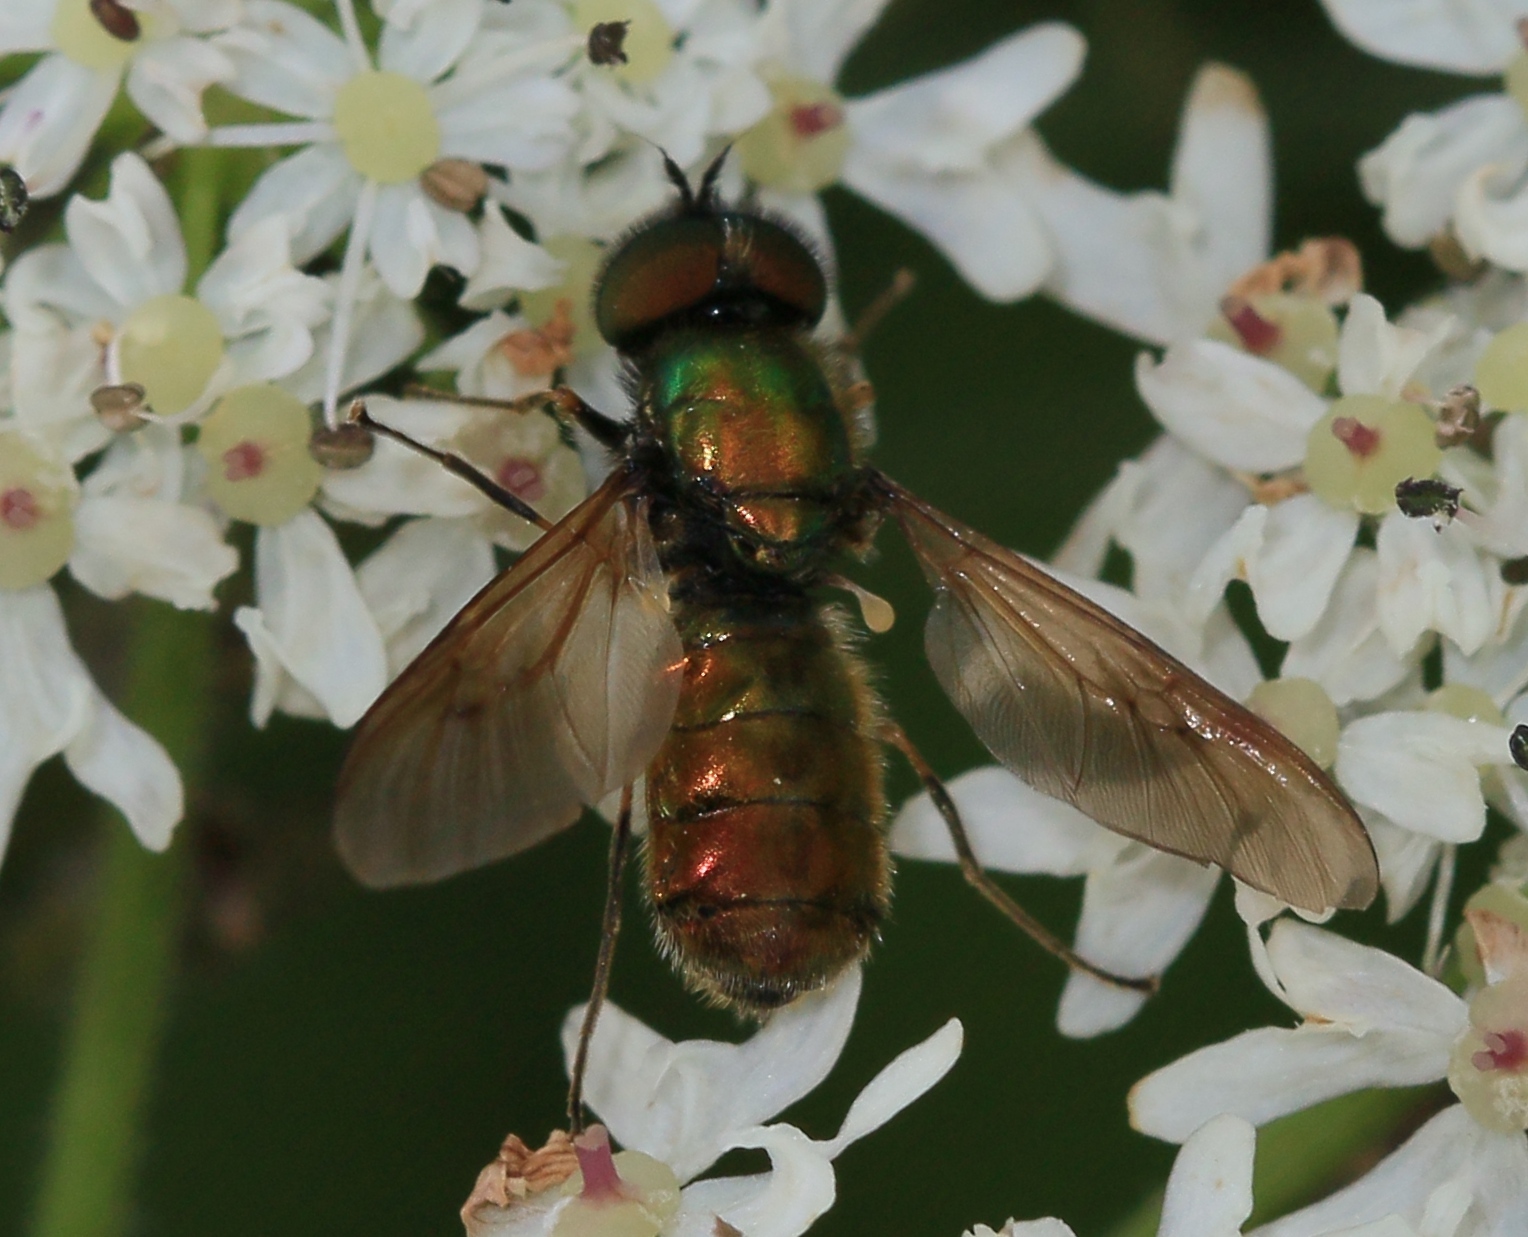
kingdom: Animalia
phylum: Arthropoda
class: Insecta
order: Diptera
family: Stratiomyidae
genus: Chloromyia
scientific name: Chloromyia formosa
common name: Soldier fly
